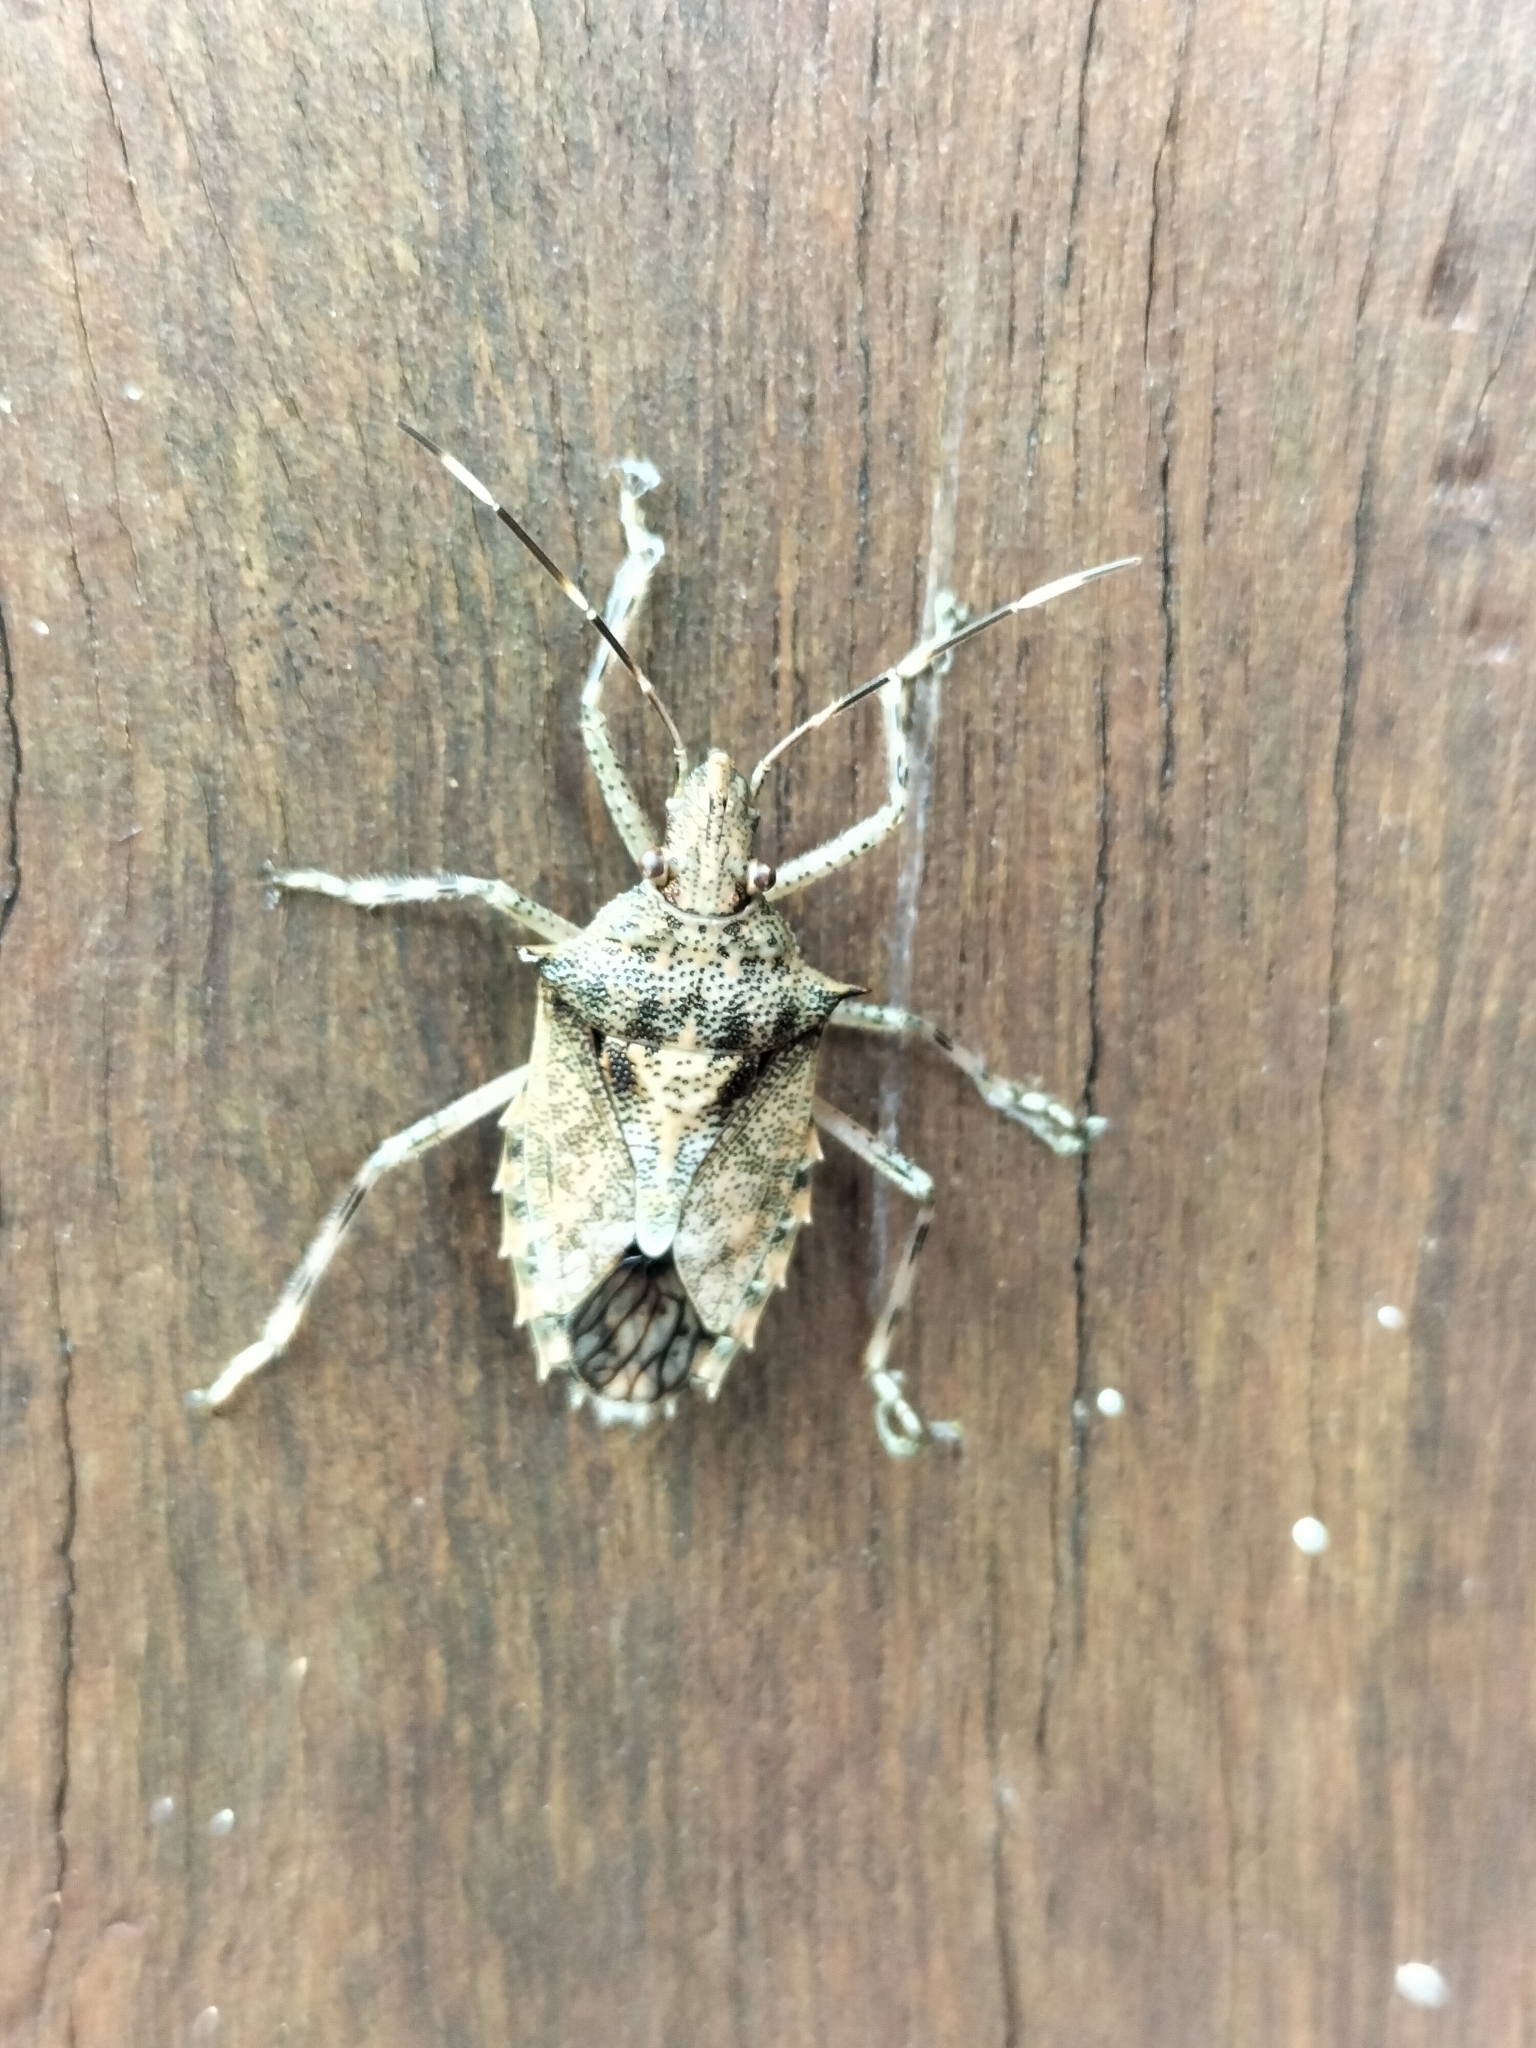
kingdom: Animalia
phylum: Arthropoda
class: Insecta
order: Hemiptera
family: Pentatomidae
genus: Bromocoris
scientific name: Bromocoris
